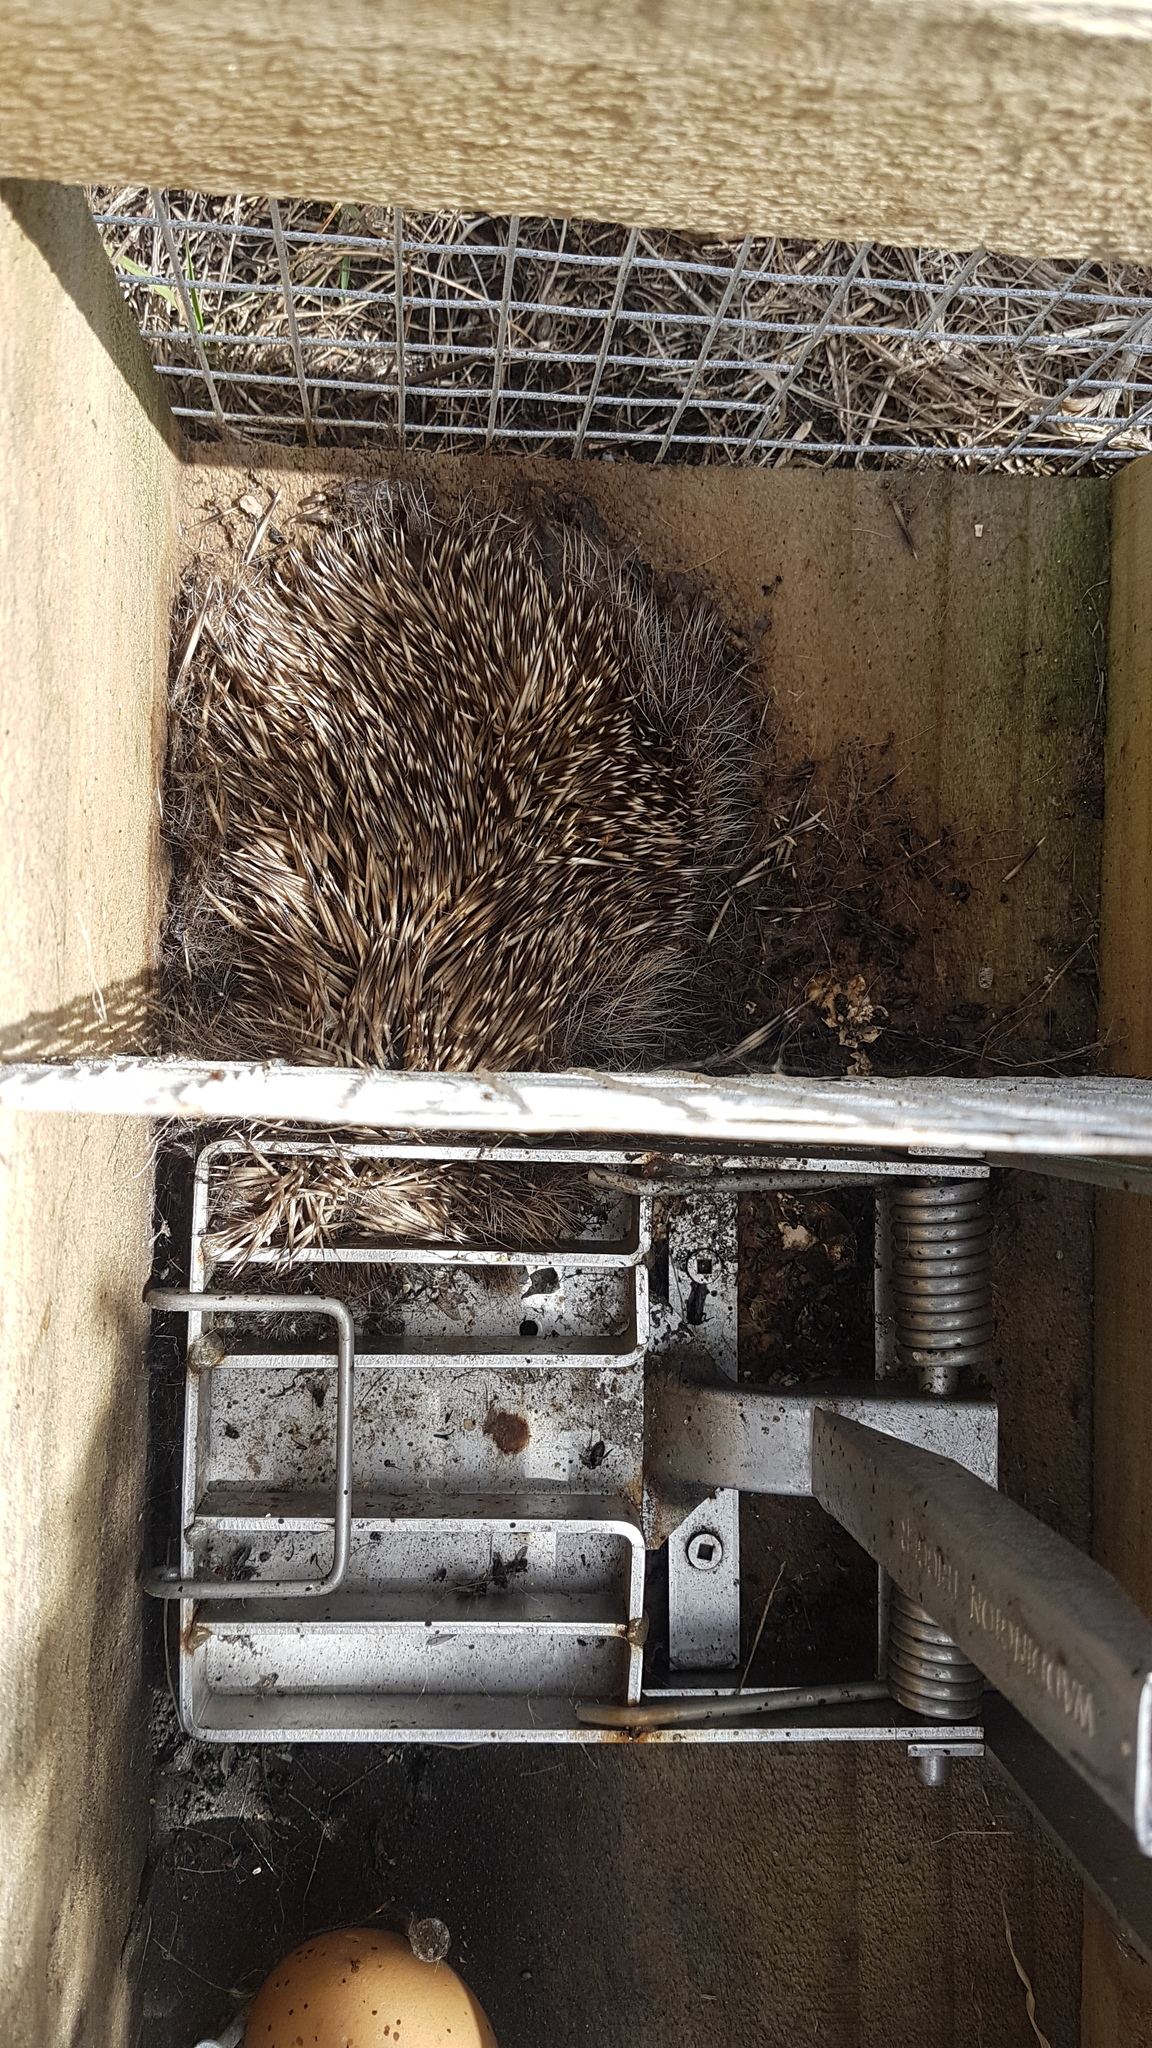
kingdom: Animalia
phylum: Chordata
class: Mammalia
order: Erinaceomorpha
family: Erinaceidae
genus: Erinaceus
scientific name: Erinaceus europaeus
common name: West european hedgehog
